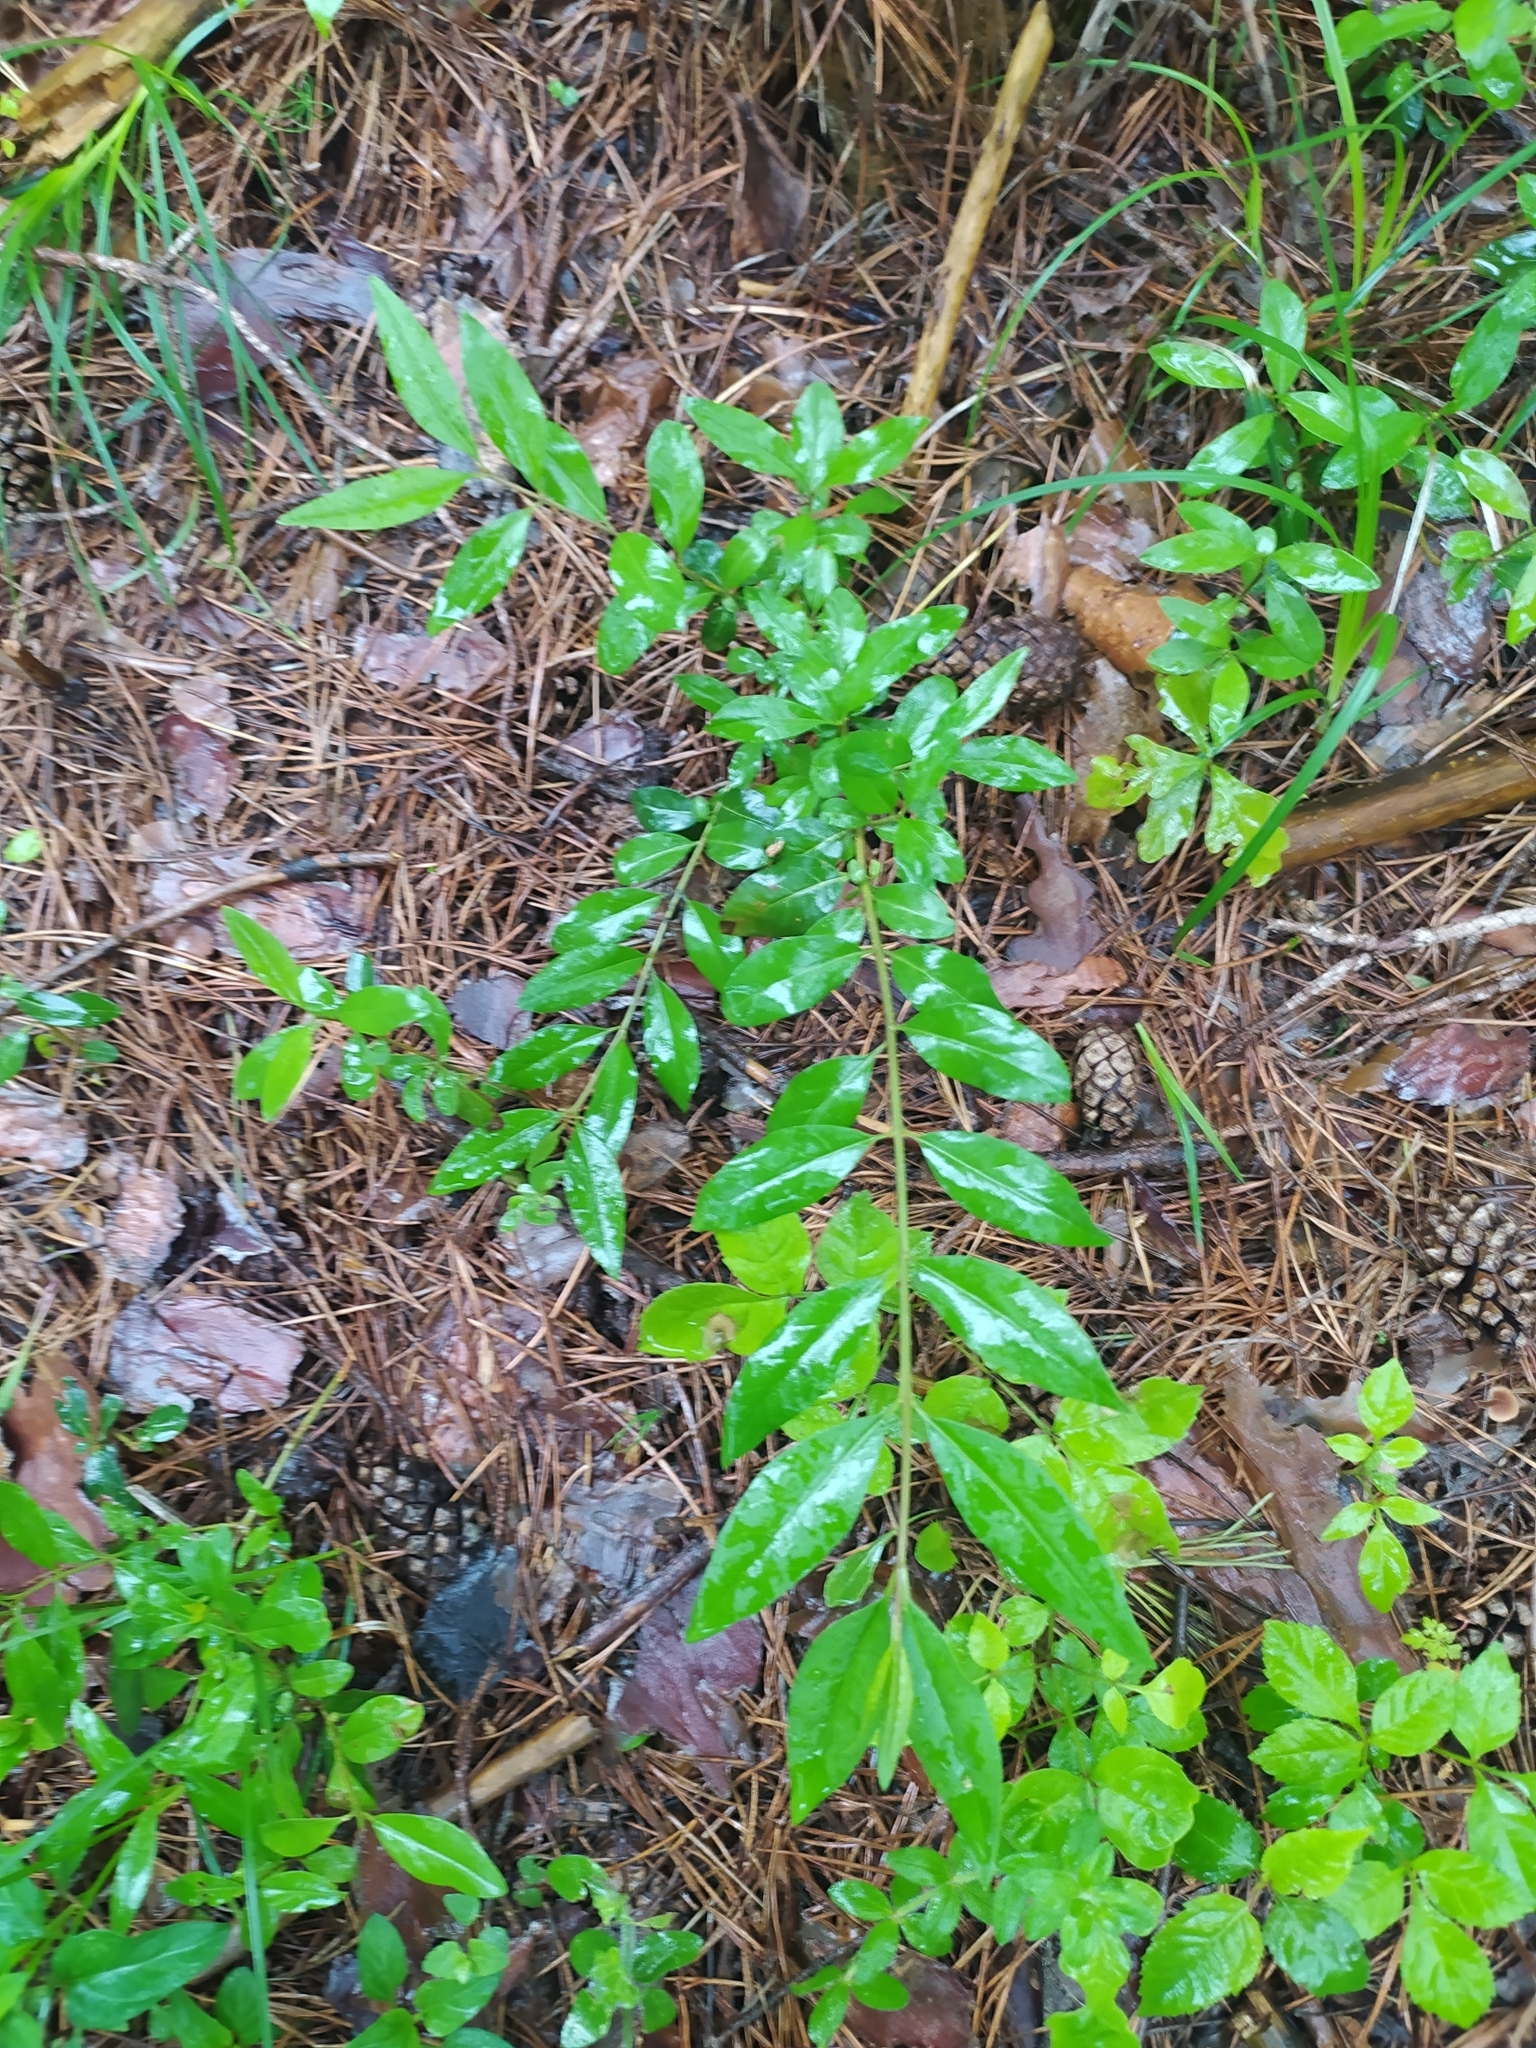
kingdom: Plantae
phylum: Tracheophyta
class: Magnoliopsida
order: Lamiales
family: Oleaceae
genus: Ligustrum
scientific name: Ligustrum vulgare
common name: Wild privet
